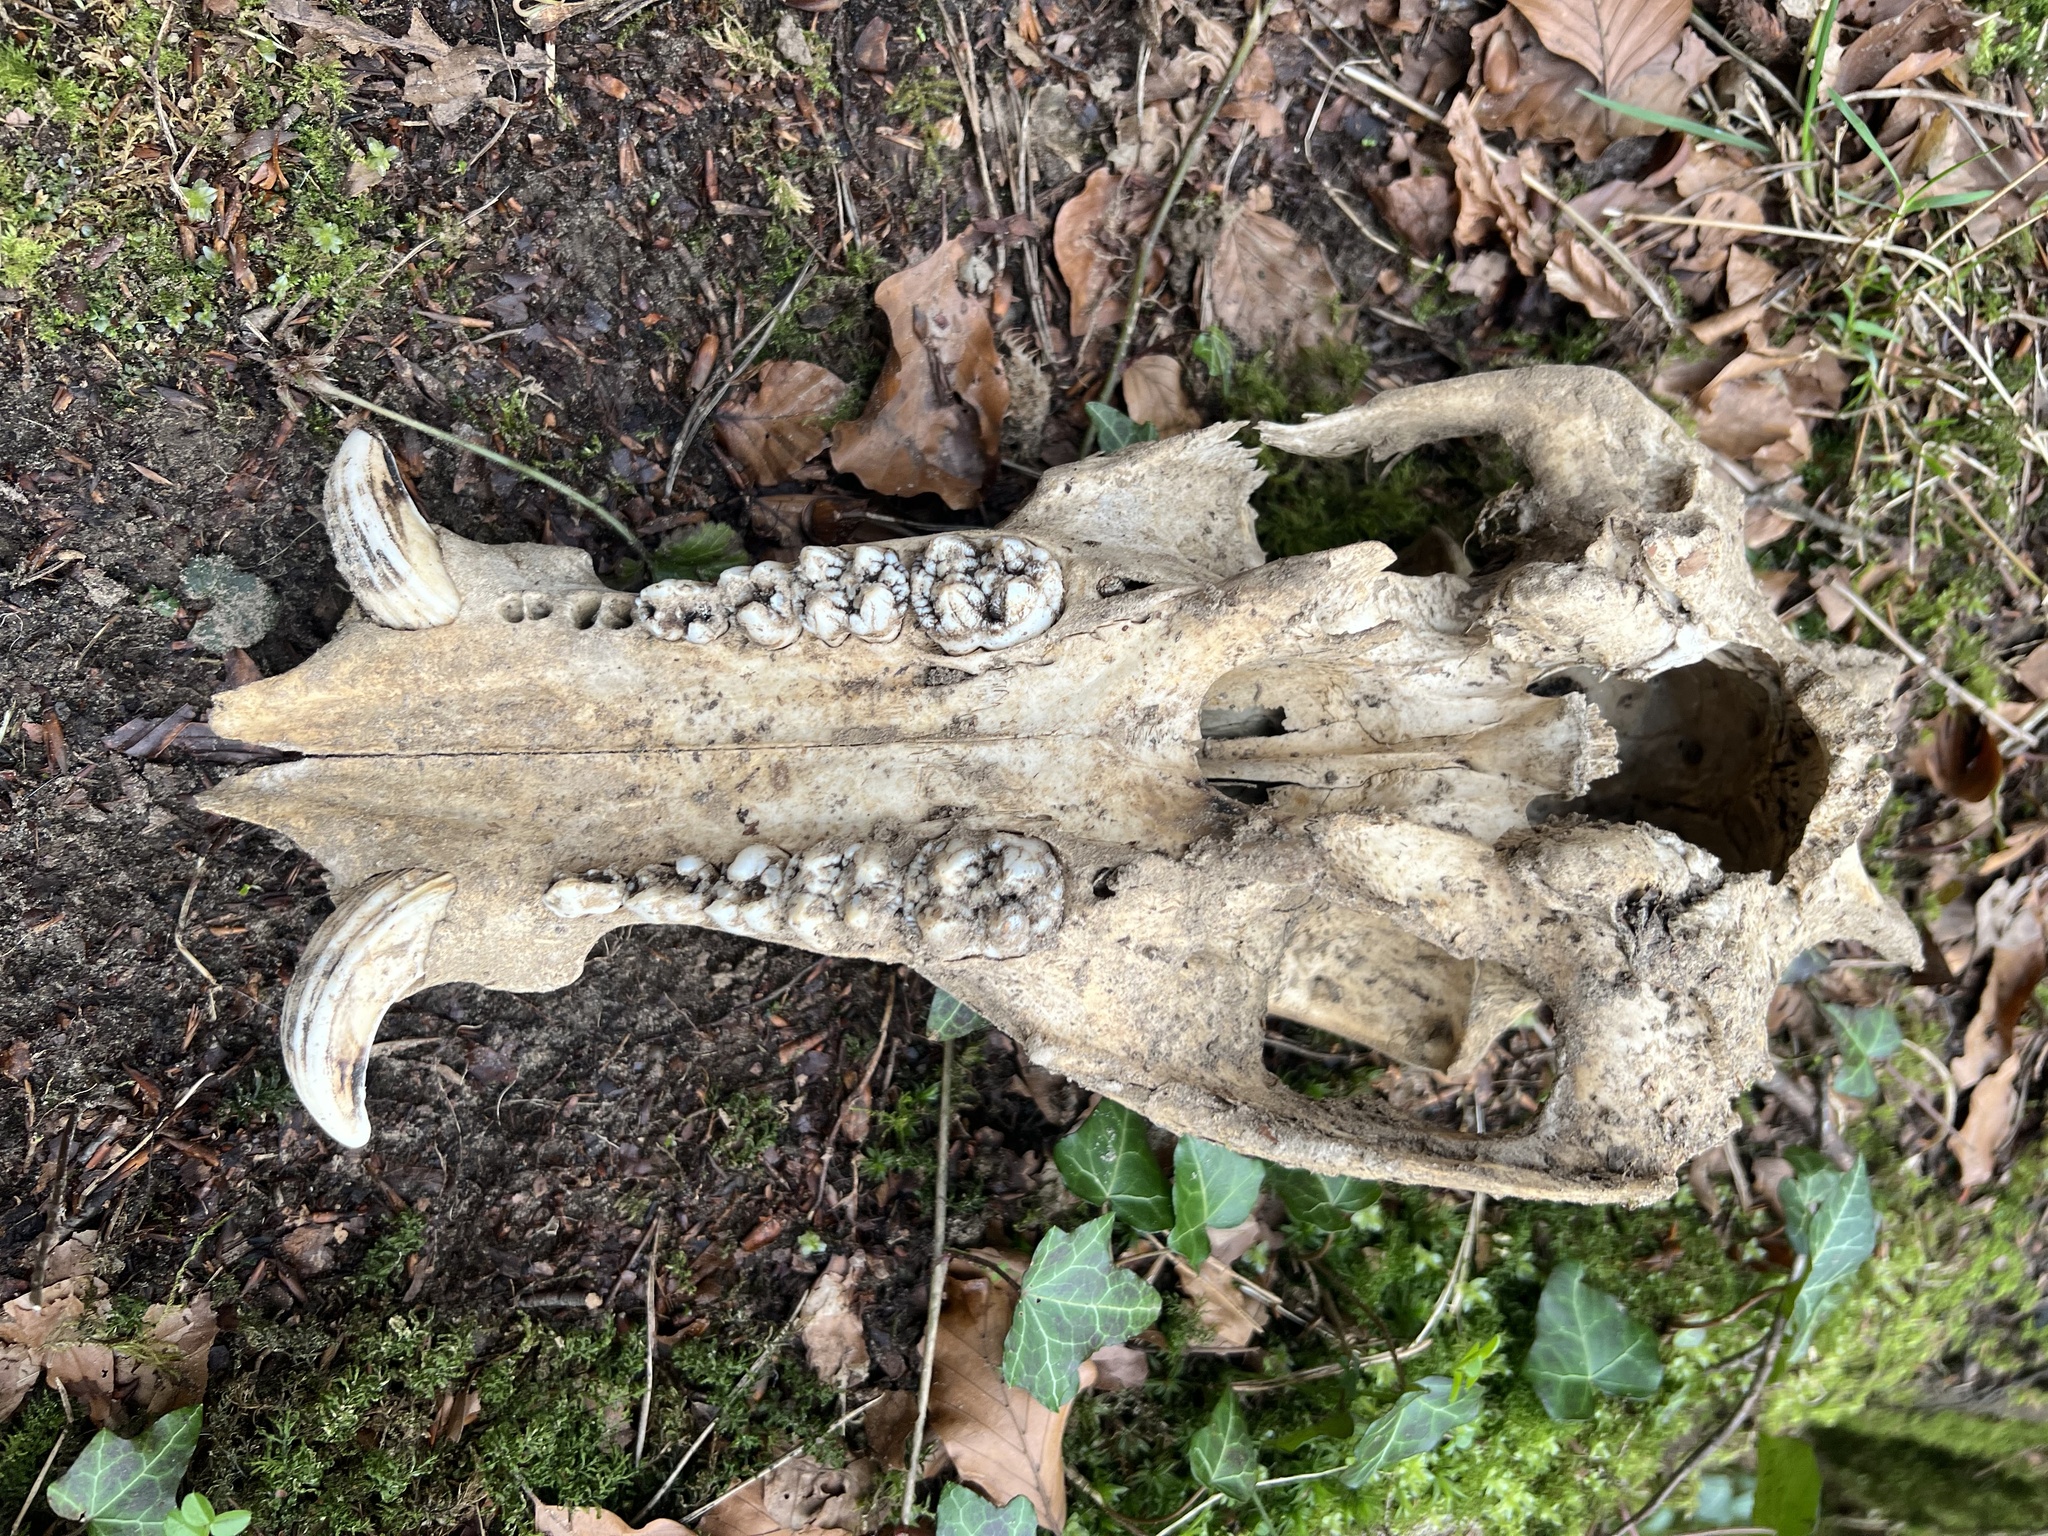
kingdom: Animalia
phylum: Chordata
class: Mammalia
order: Artiodactyla
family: Suidae
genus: Sus
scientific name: Sus scrofa
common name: Wild boar
